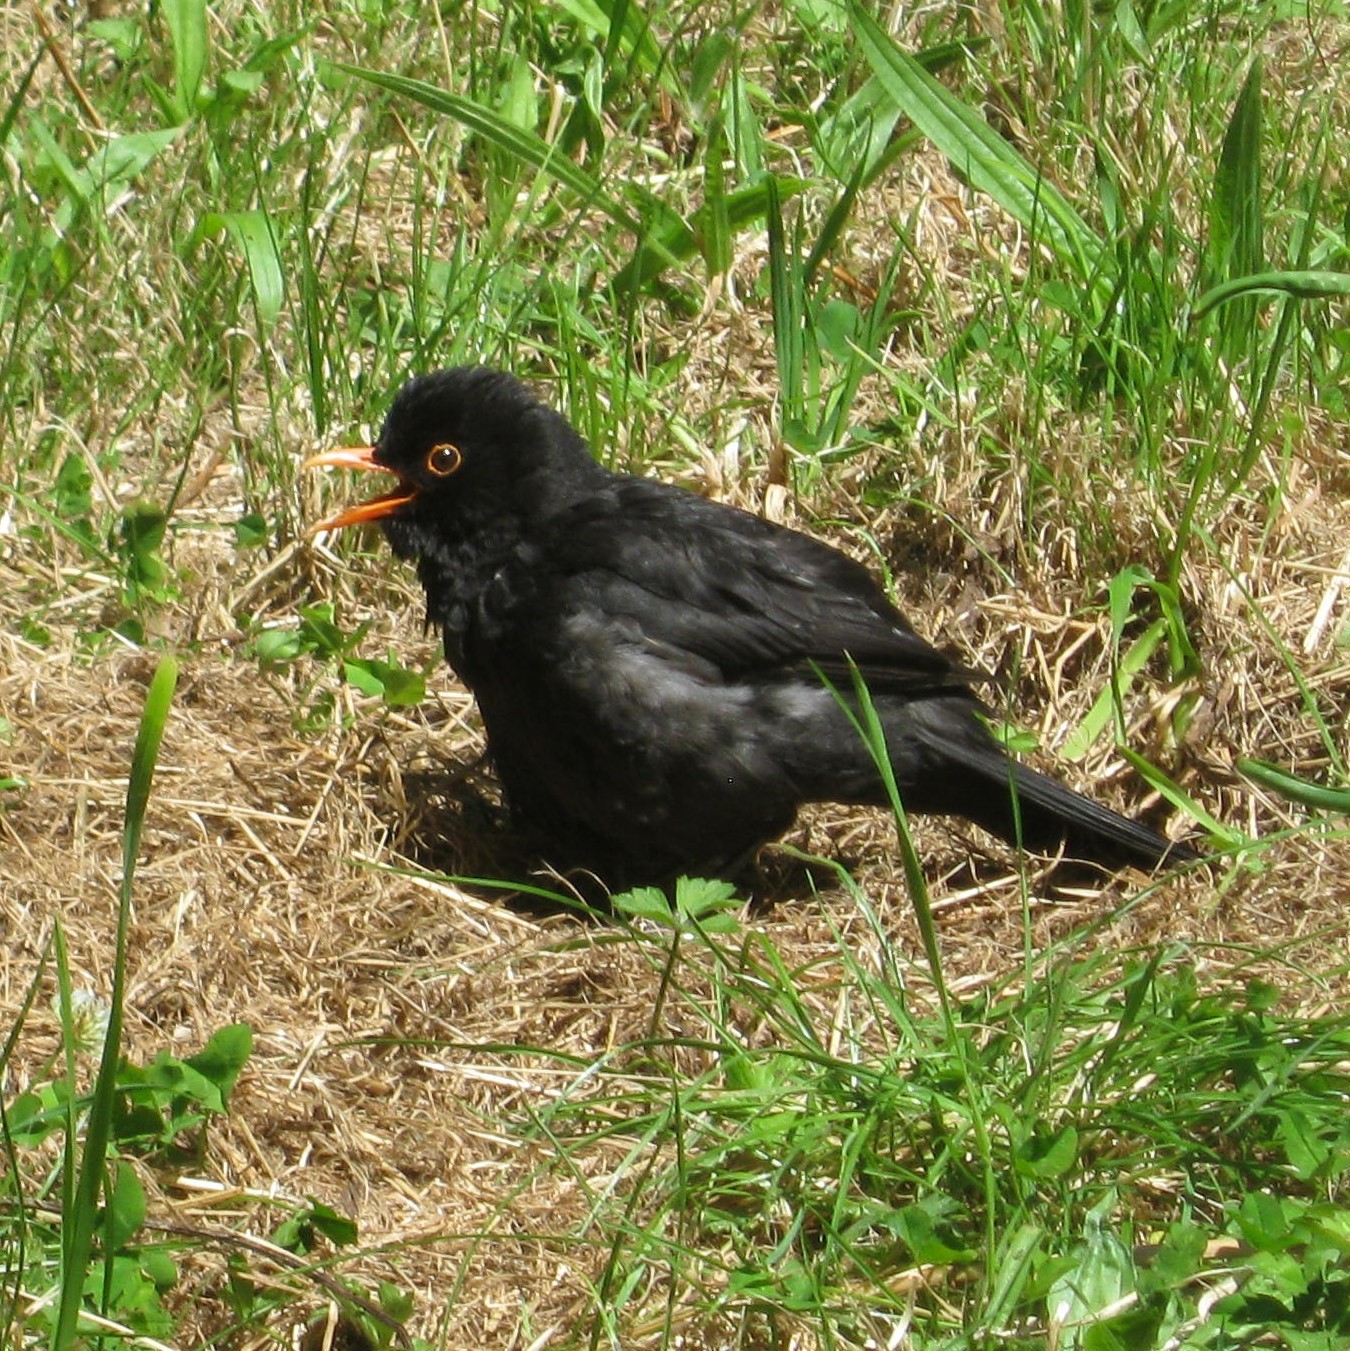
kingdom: Animalia
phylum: Chordata
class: Aves
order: Passeriformes
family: Turdidae
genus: Turdus
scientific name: Turdus merula
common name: Common blackbird
